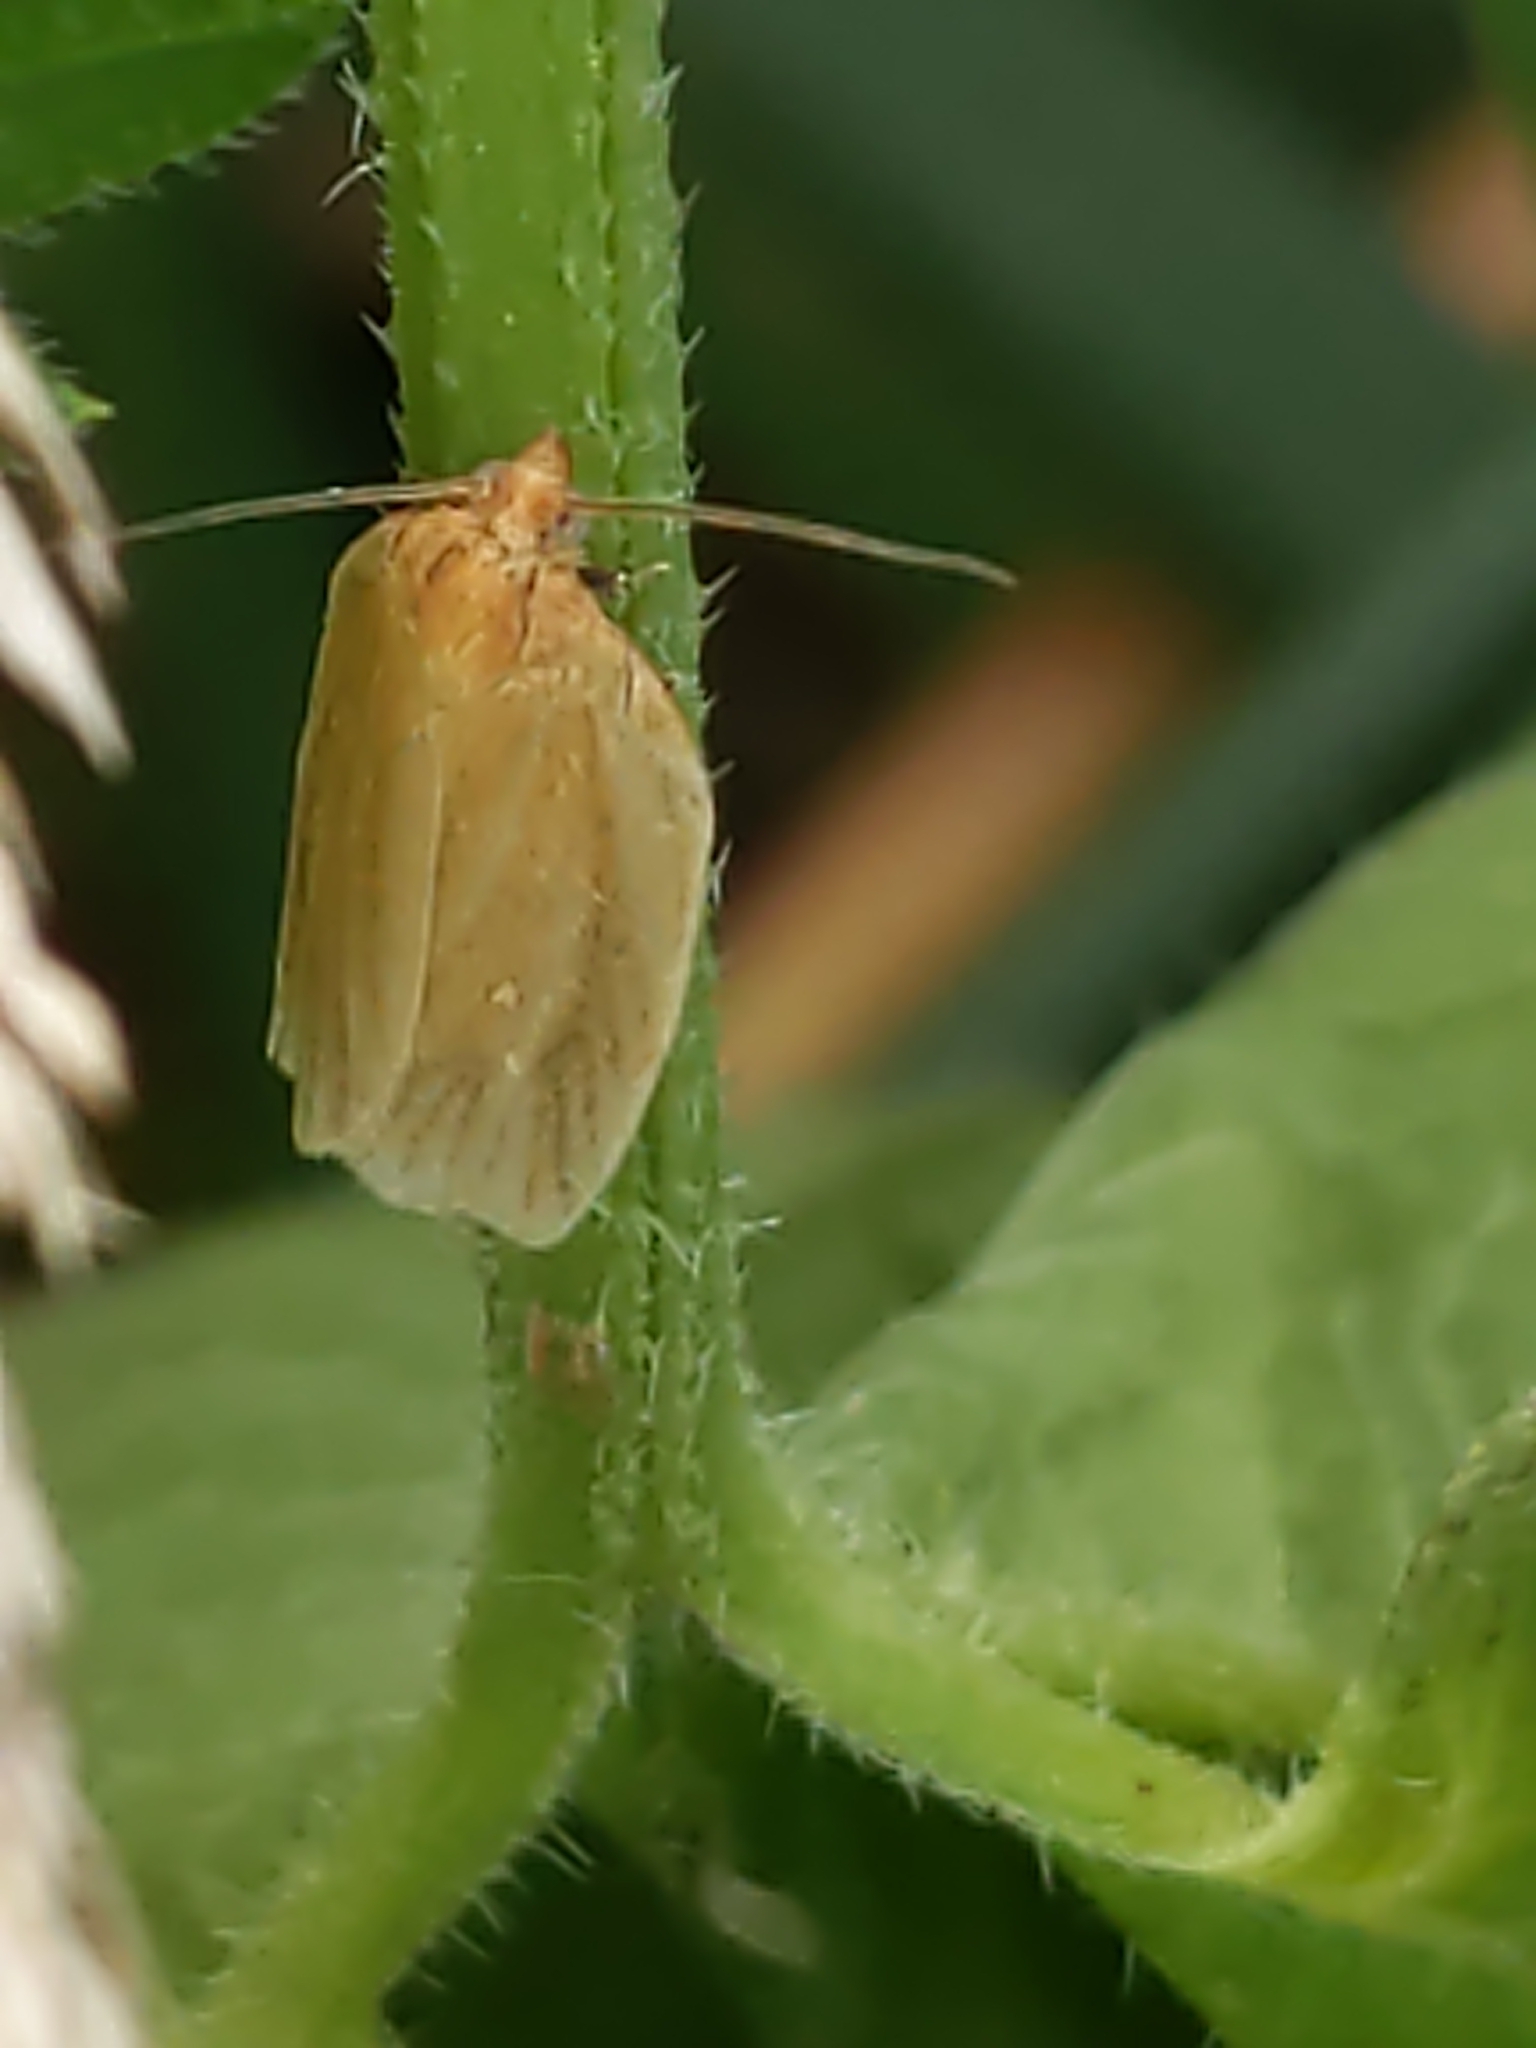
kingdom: Animalia
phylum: Arthropoda
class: Insecta
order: Lepidoptera
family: Tortricidae
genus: Clepsis
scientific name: Clepsis clemensiana
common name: Clemens' clepsis moth
